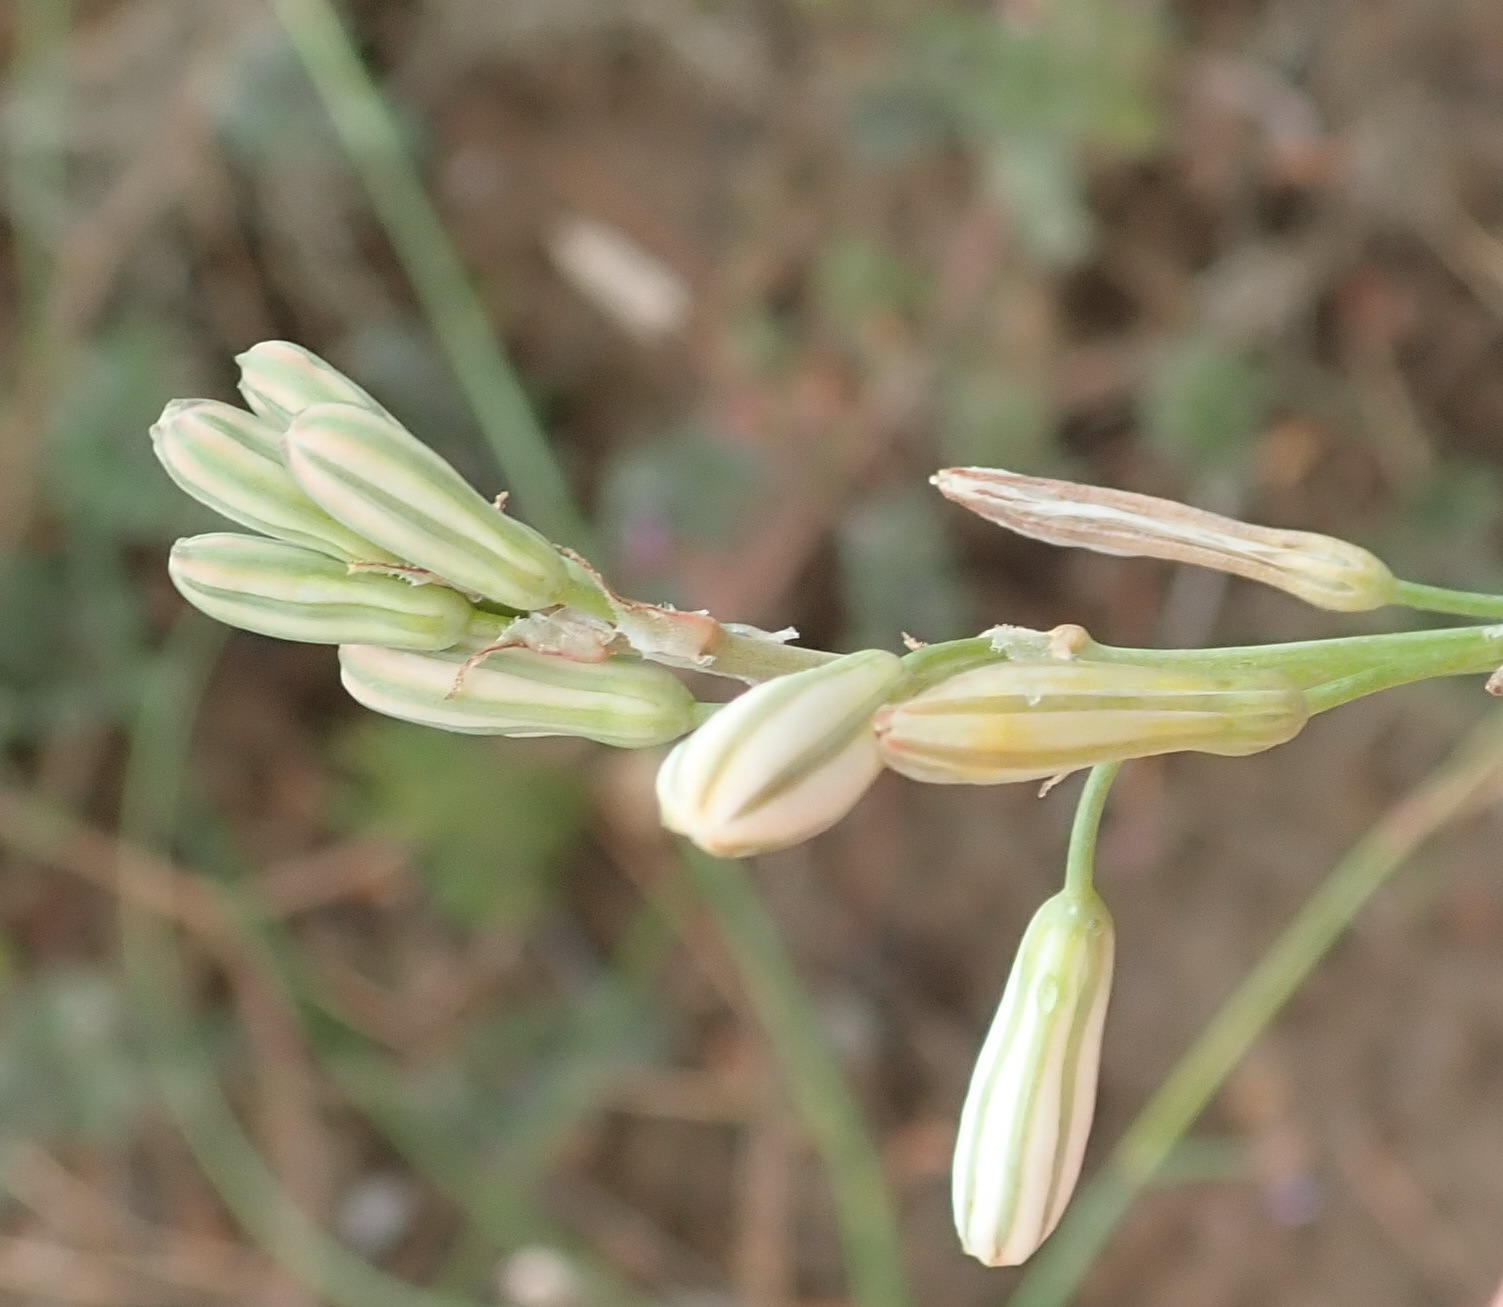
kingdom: Plantae
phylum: Tracheophyta
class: Liliopsida
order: Asparagales
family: Asphodelaceae
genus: Trachyandra
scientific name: Trachyandra muricata
